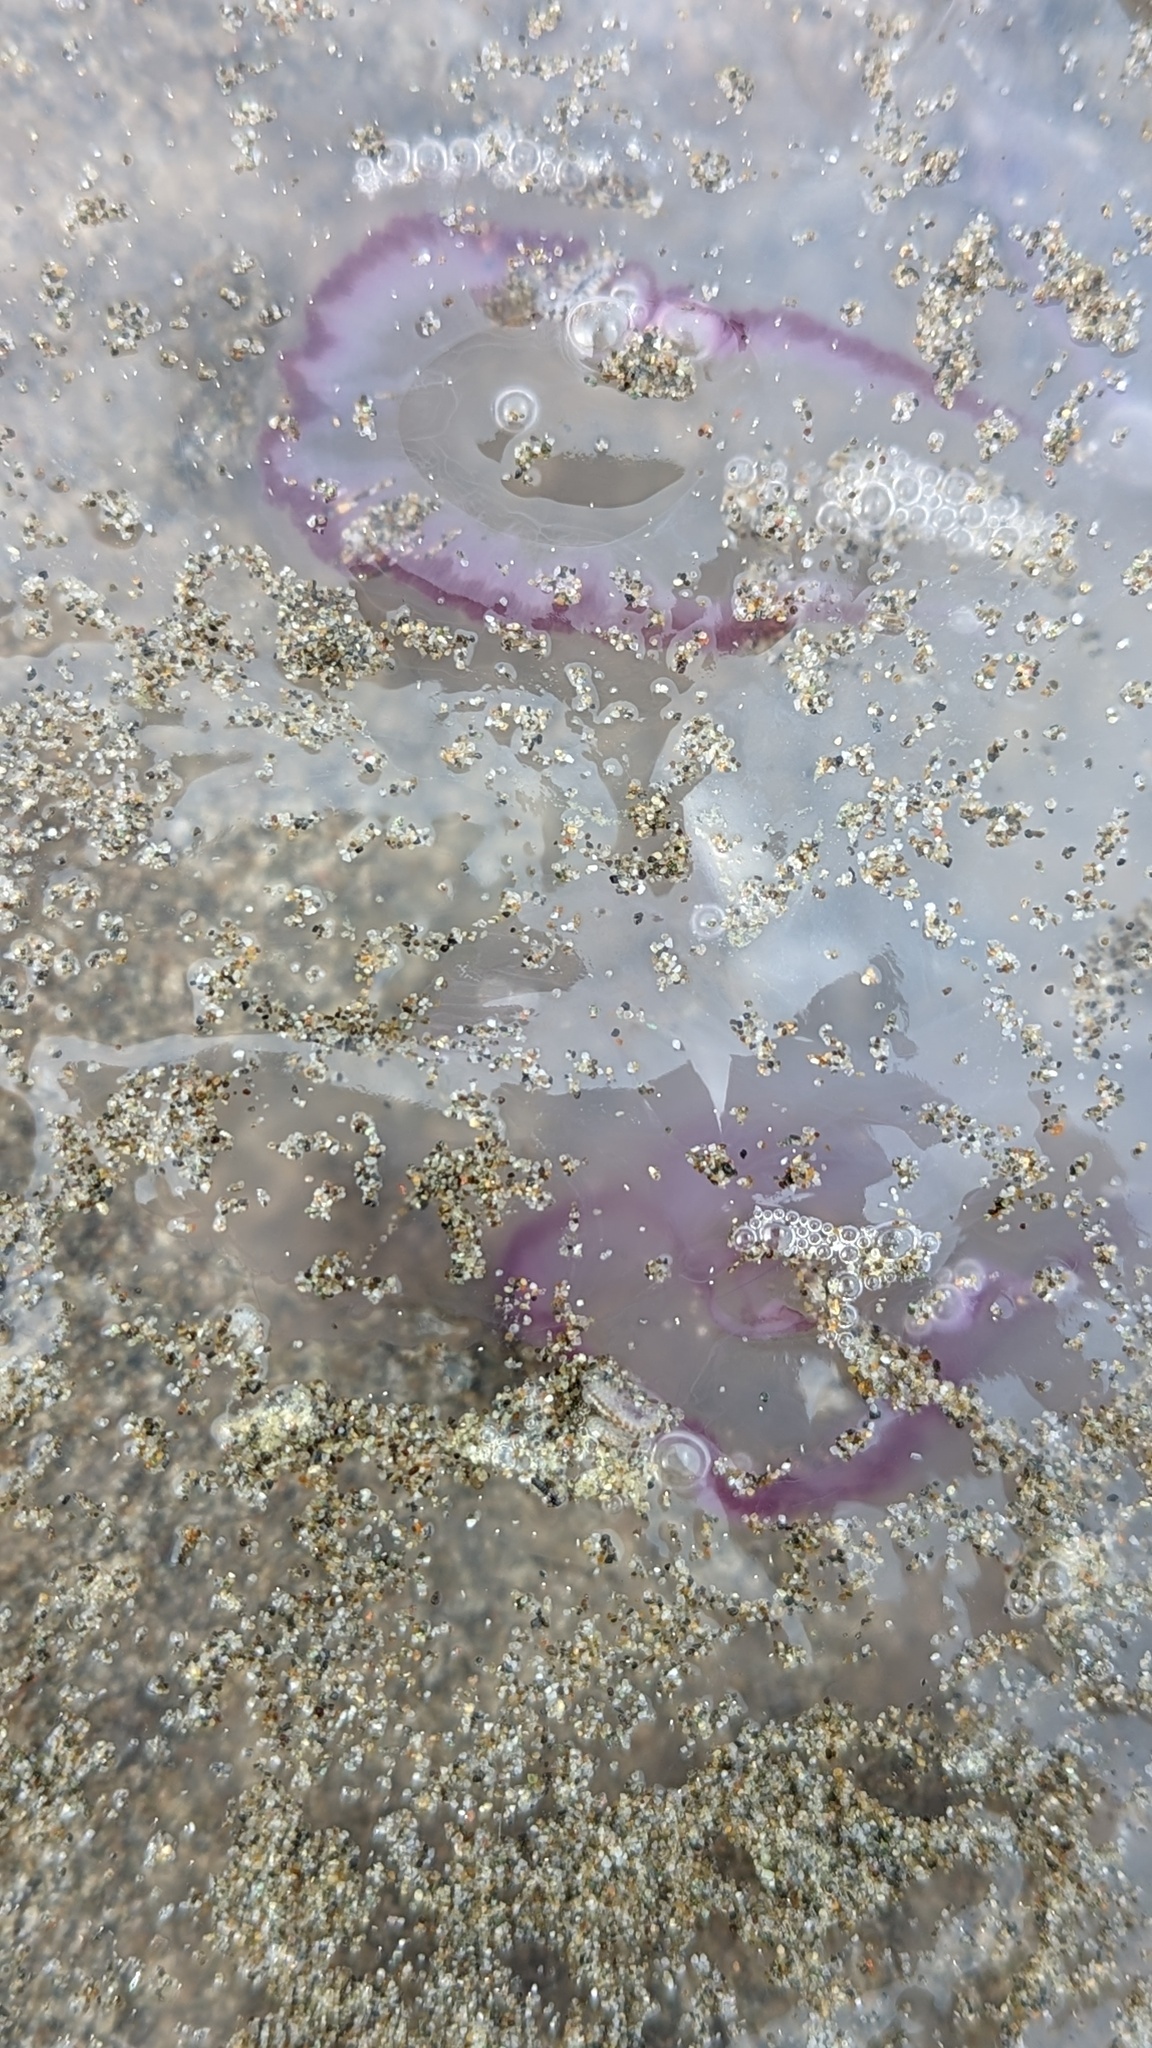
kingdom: Animalia
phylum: Cnidaria
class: Scyphozoa
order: Semaeostomeae
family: Ulmaridae
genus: Aurelia
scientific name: Aurelia labiata
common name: Pacific moon jelly
